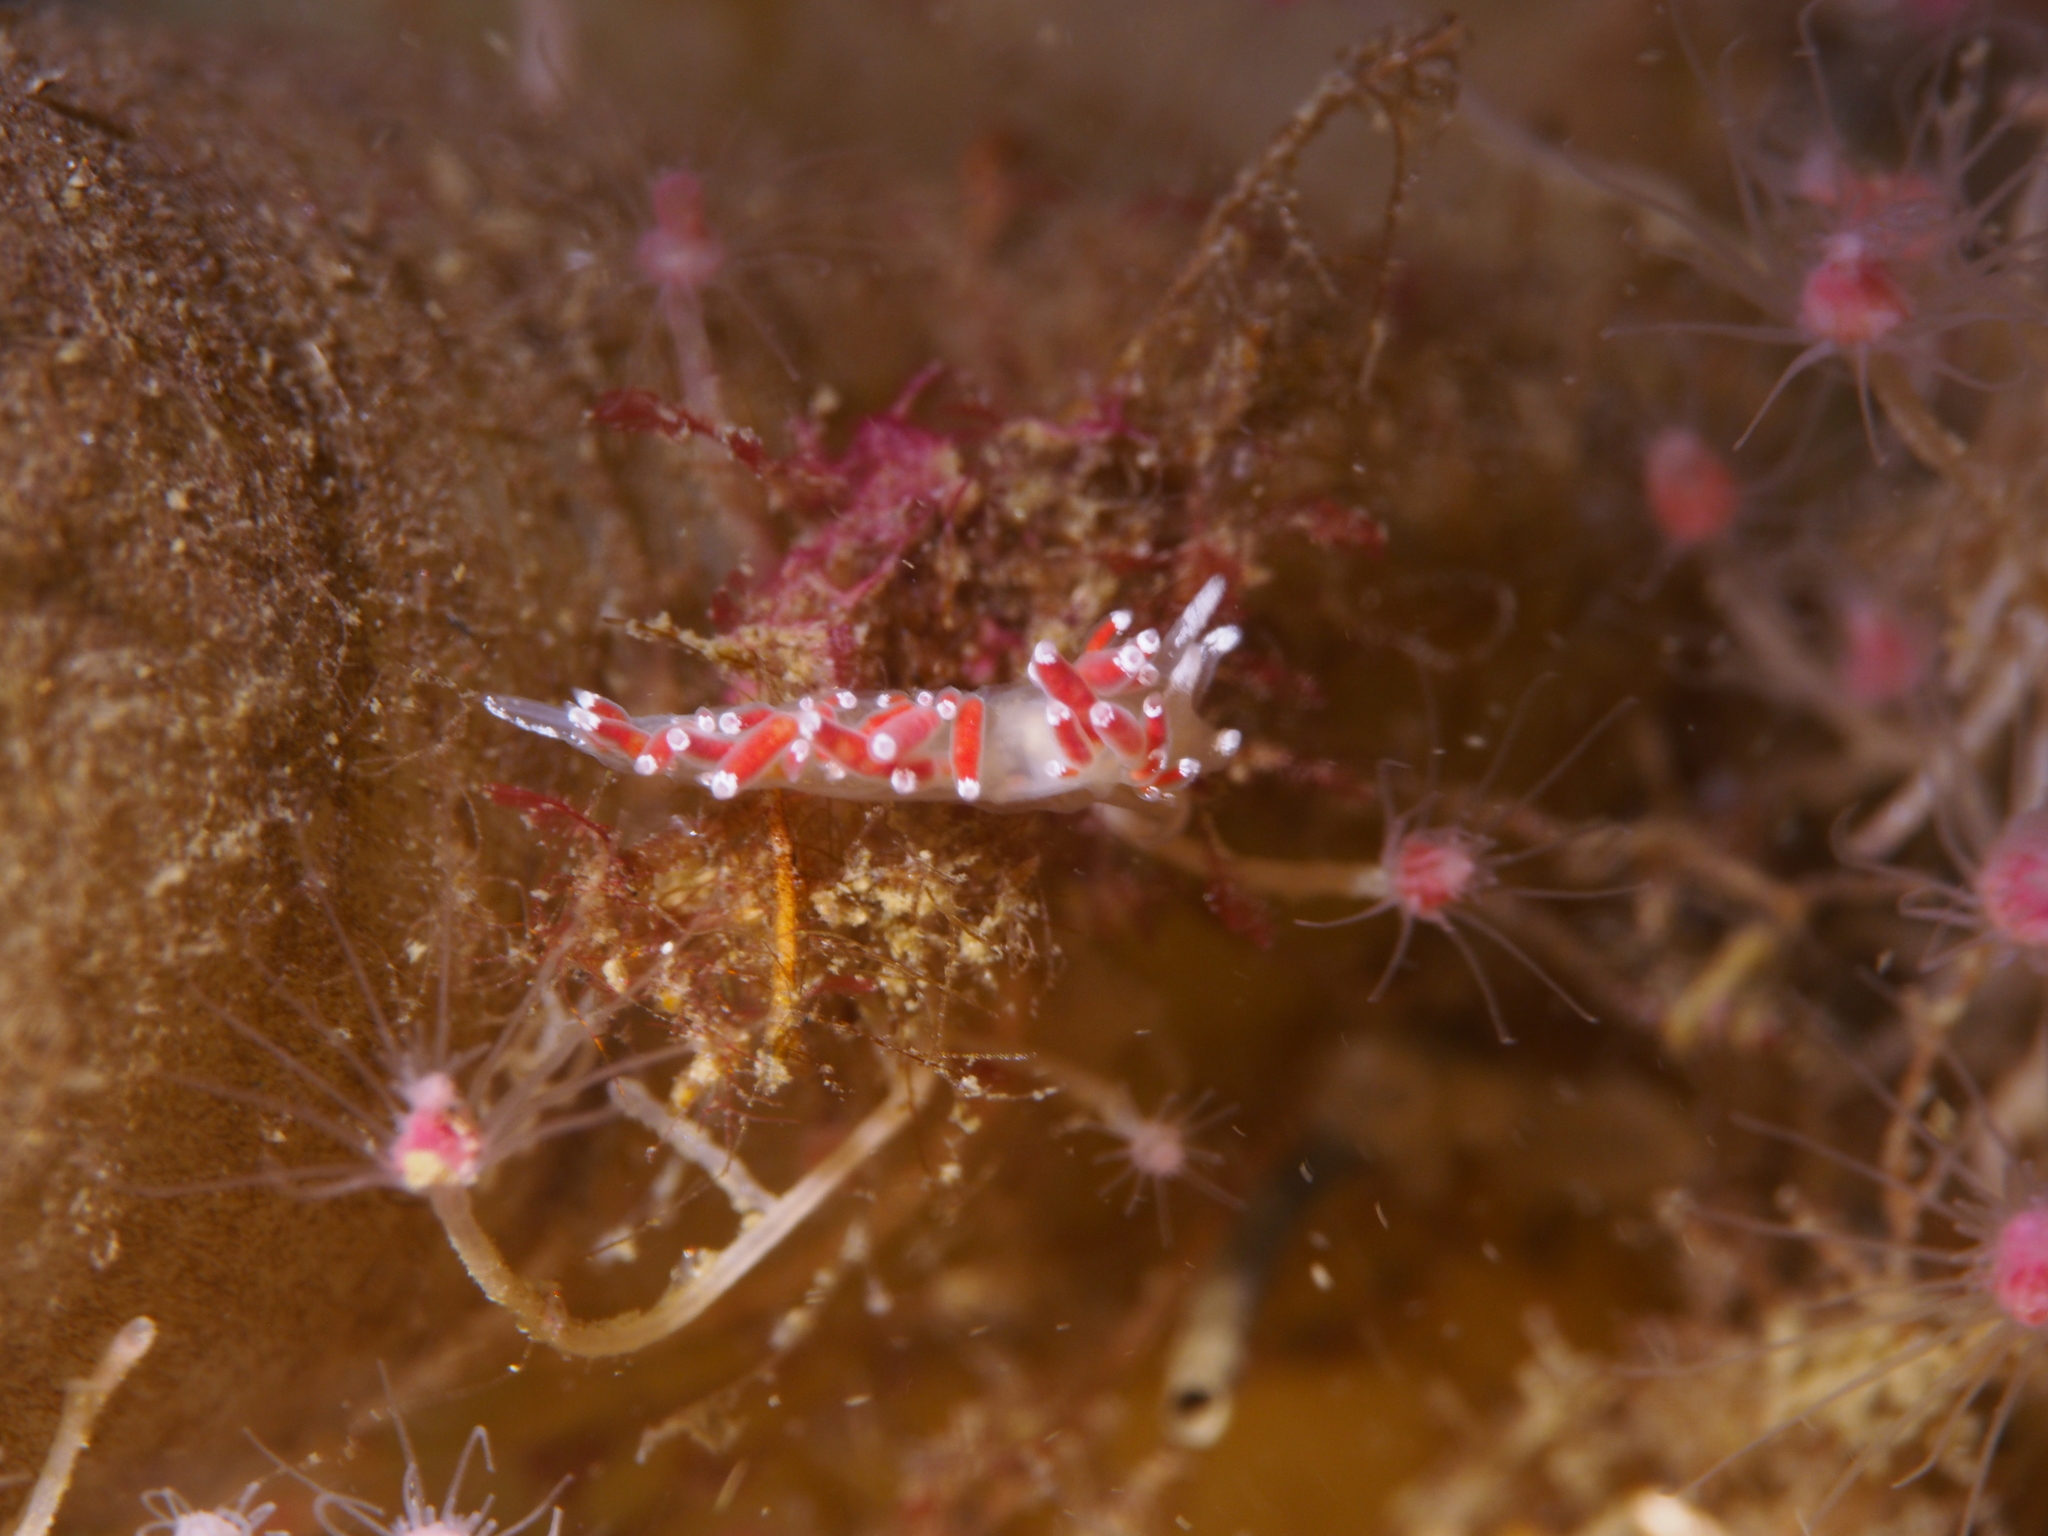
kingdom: Animalia
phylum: Mollusca
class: Gastropoda
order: Nudibranchia
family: Coryphellidae
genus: Coryphella
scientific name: Coryphella gracilis
